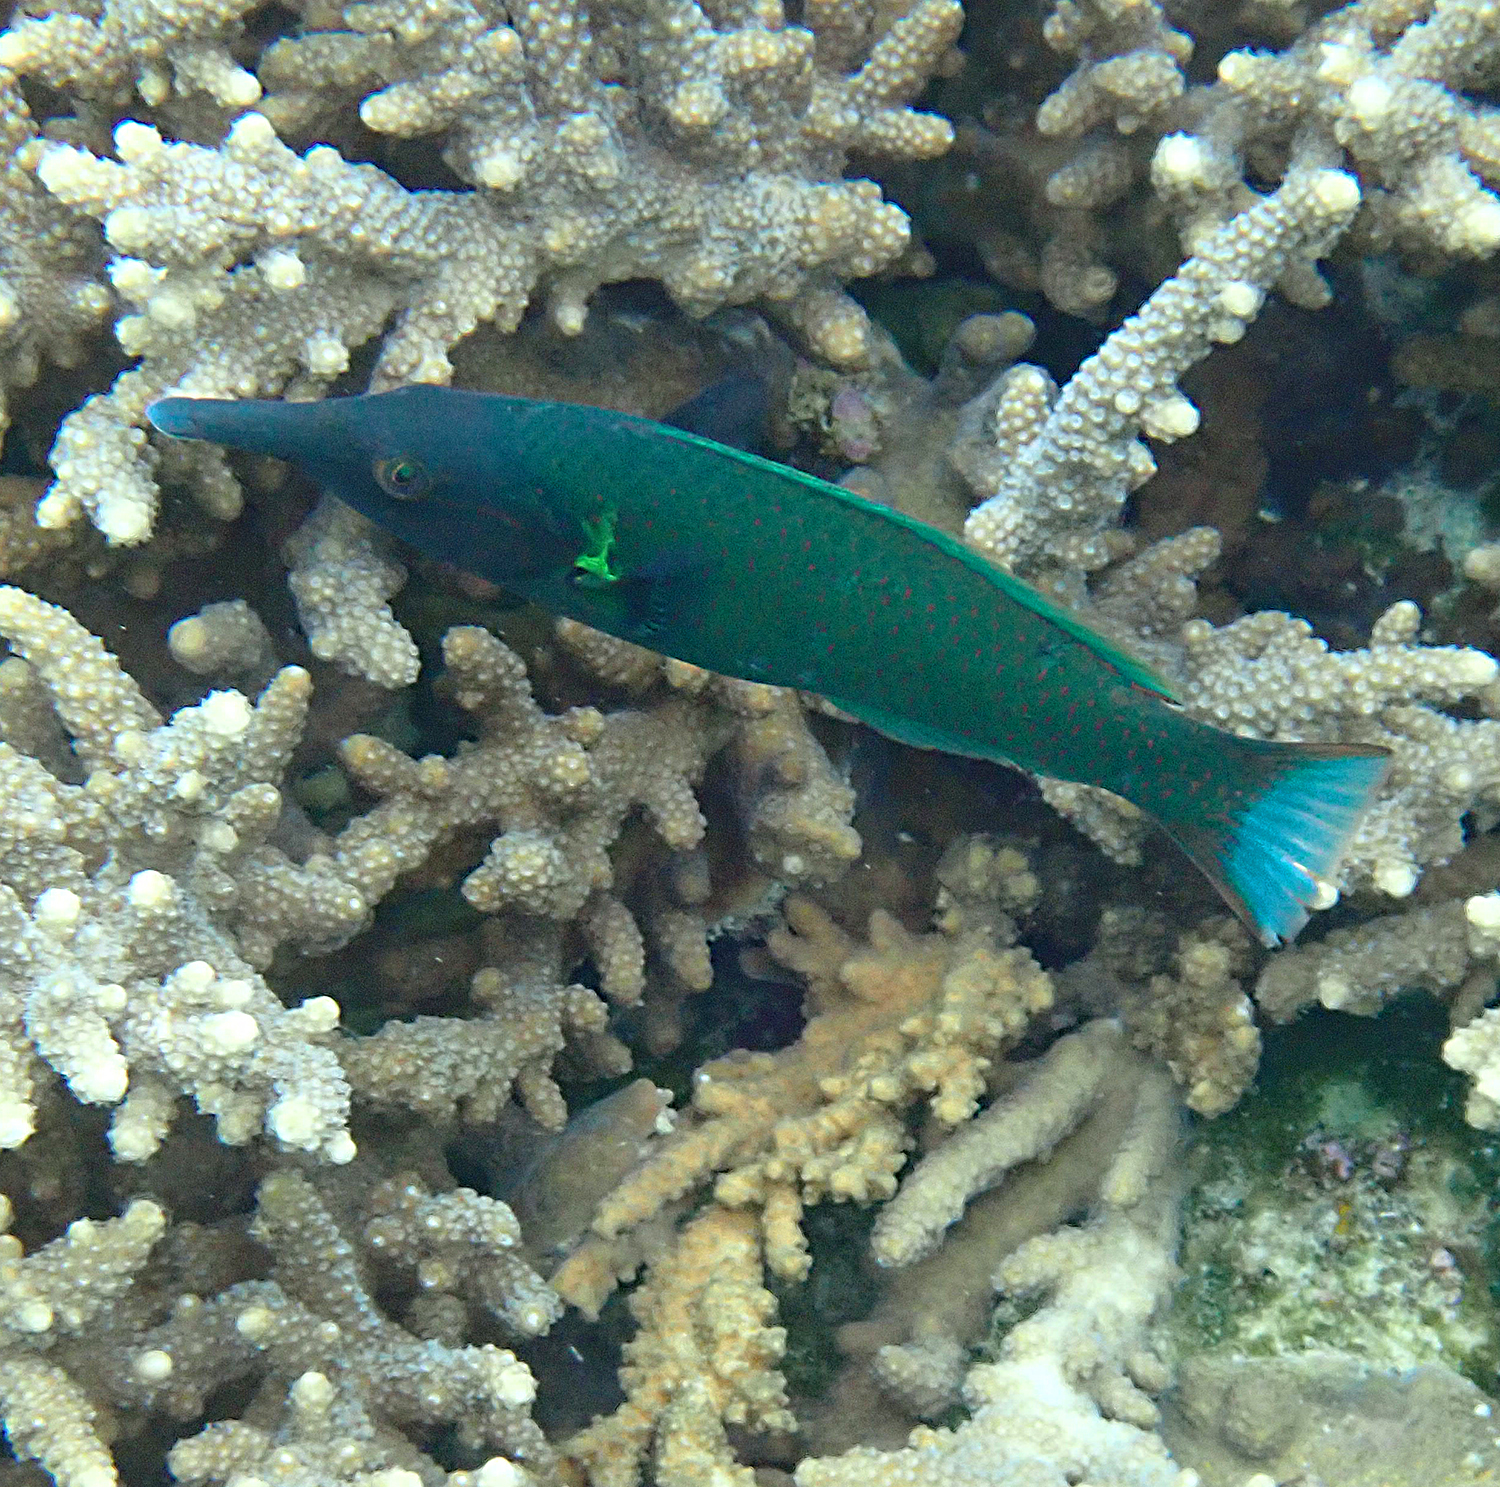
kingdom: Animalia
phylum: Chordata
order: Perciformes
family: Labridae
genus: Gomphosus
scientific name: Gomphosus varius
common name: Bird wrasse
